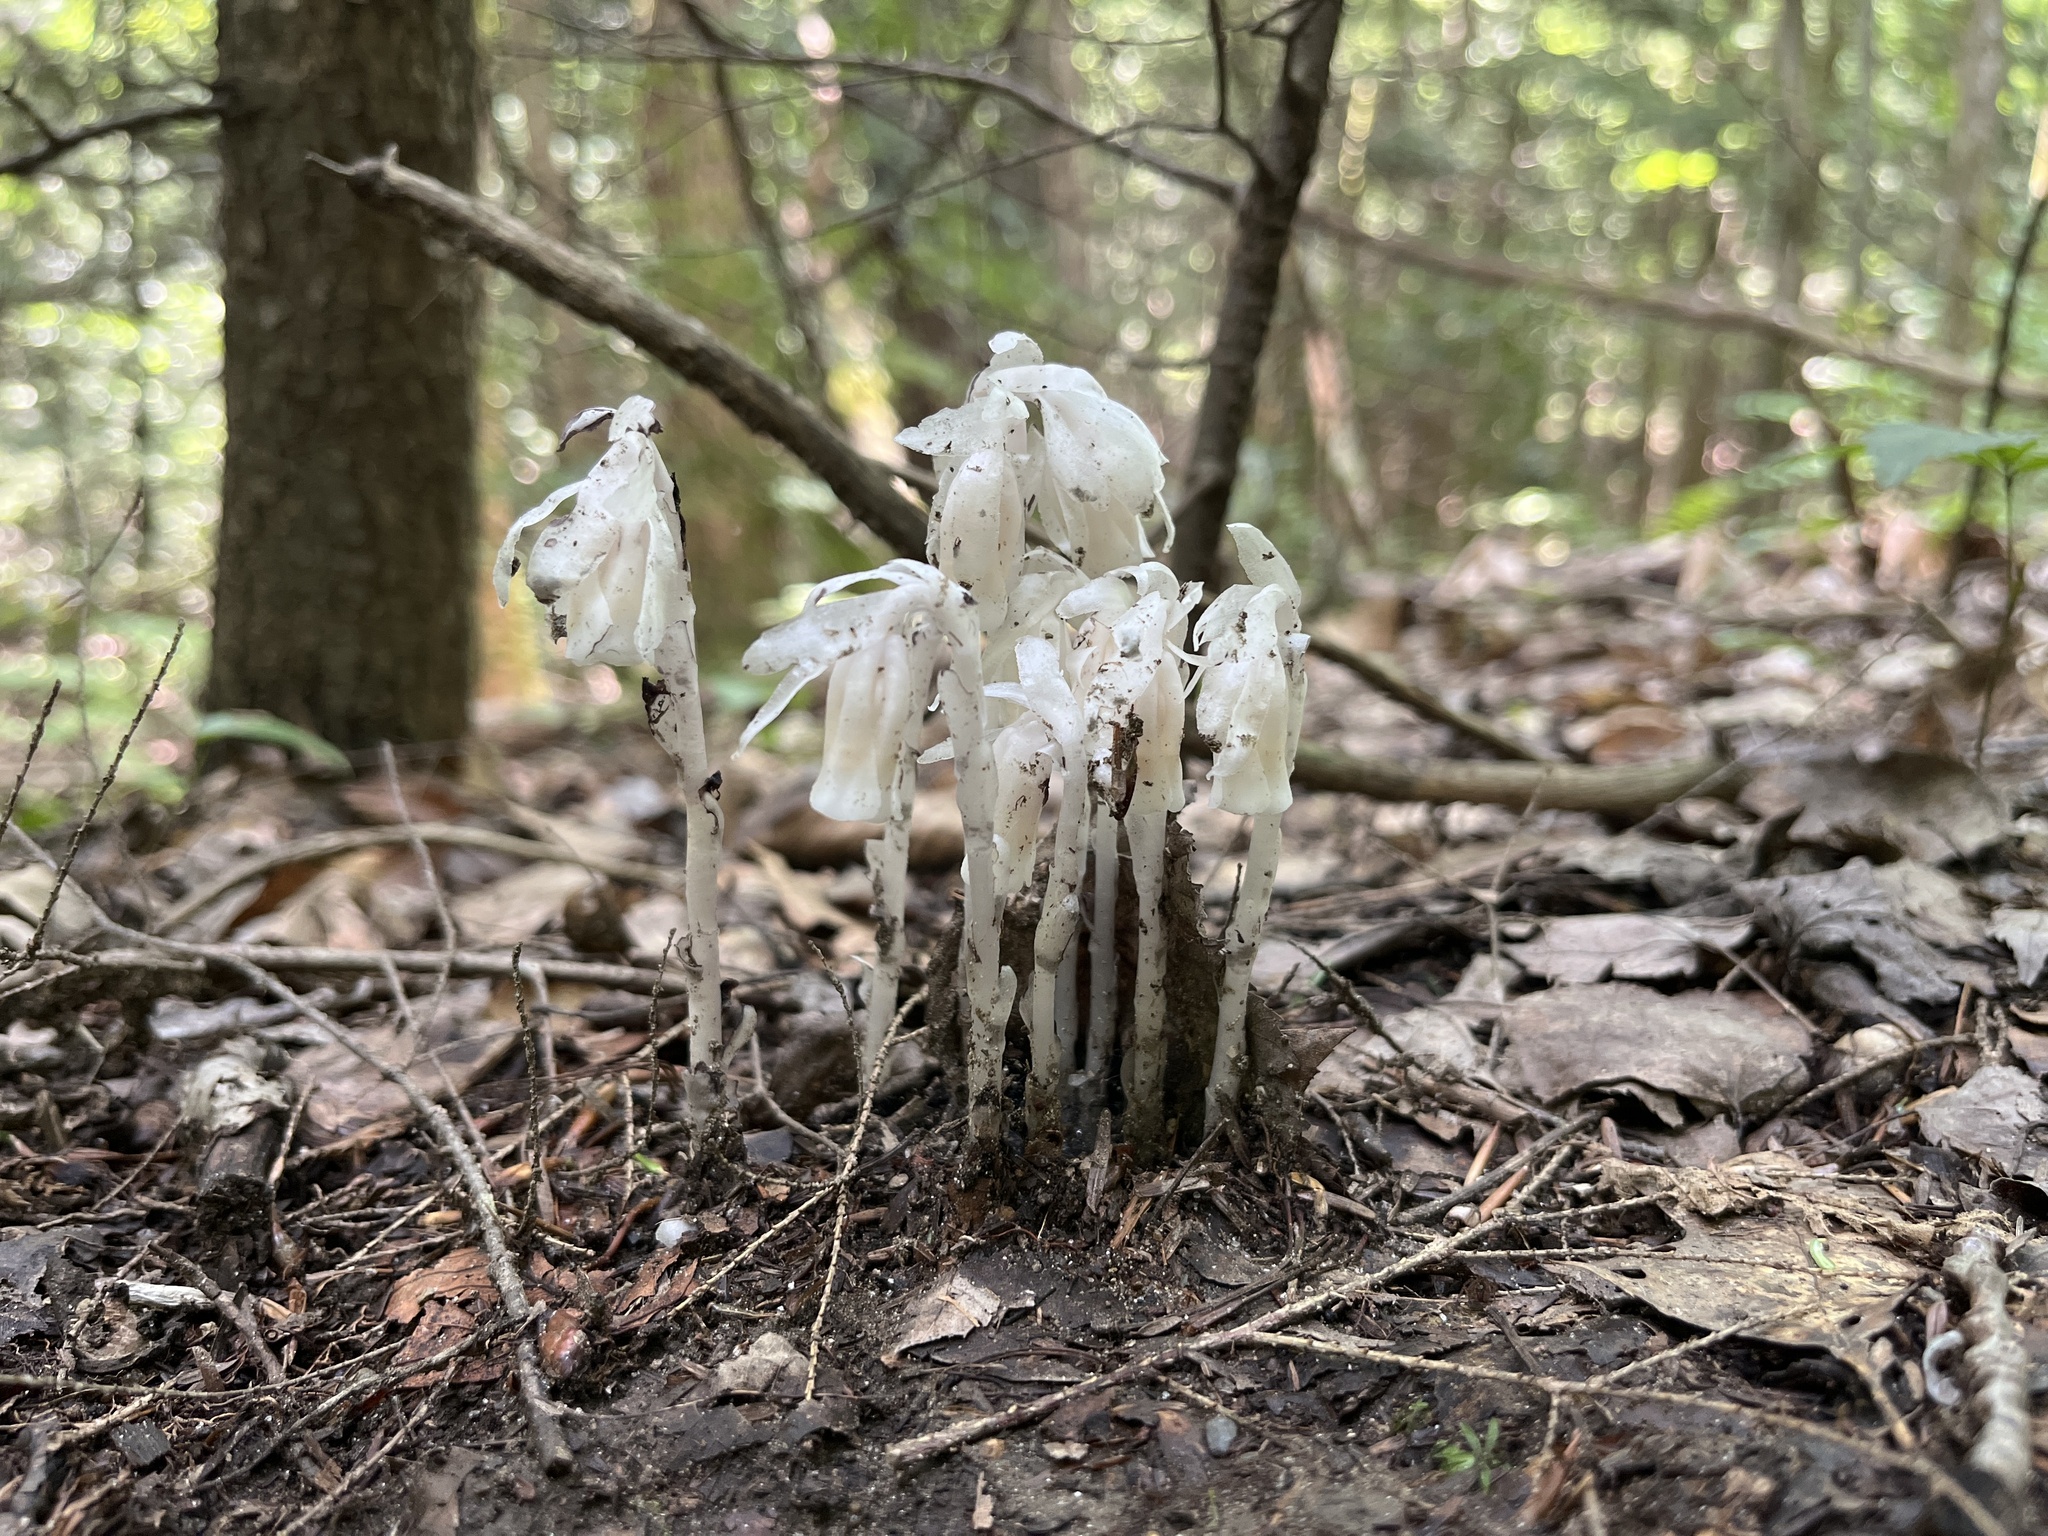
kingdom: Plantae
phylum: Tracheophyta
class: Magnoliopsida
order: Ericales
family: Ericaceae
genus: Monotropa
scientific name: Monotropa uniflora
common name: Convulsion root
